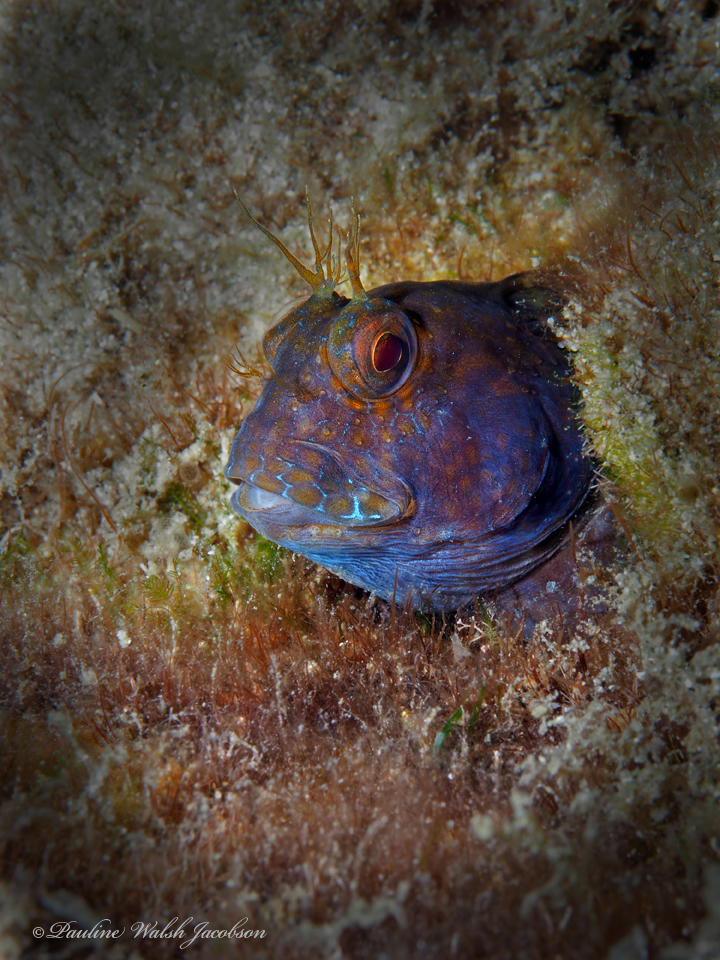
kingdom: Animalia
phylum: Chordata
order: Perciformes
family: Blenniidae
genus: Parablennius
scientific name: Parablennius marmoreus
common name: Seaweed blenny
